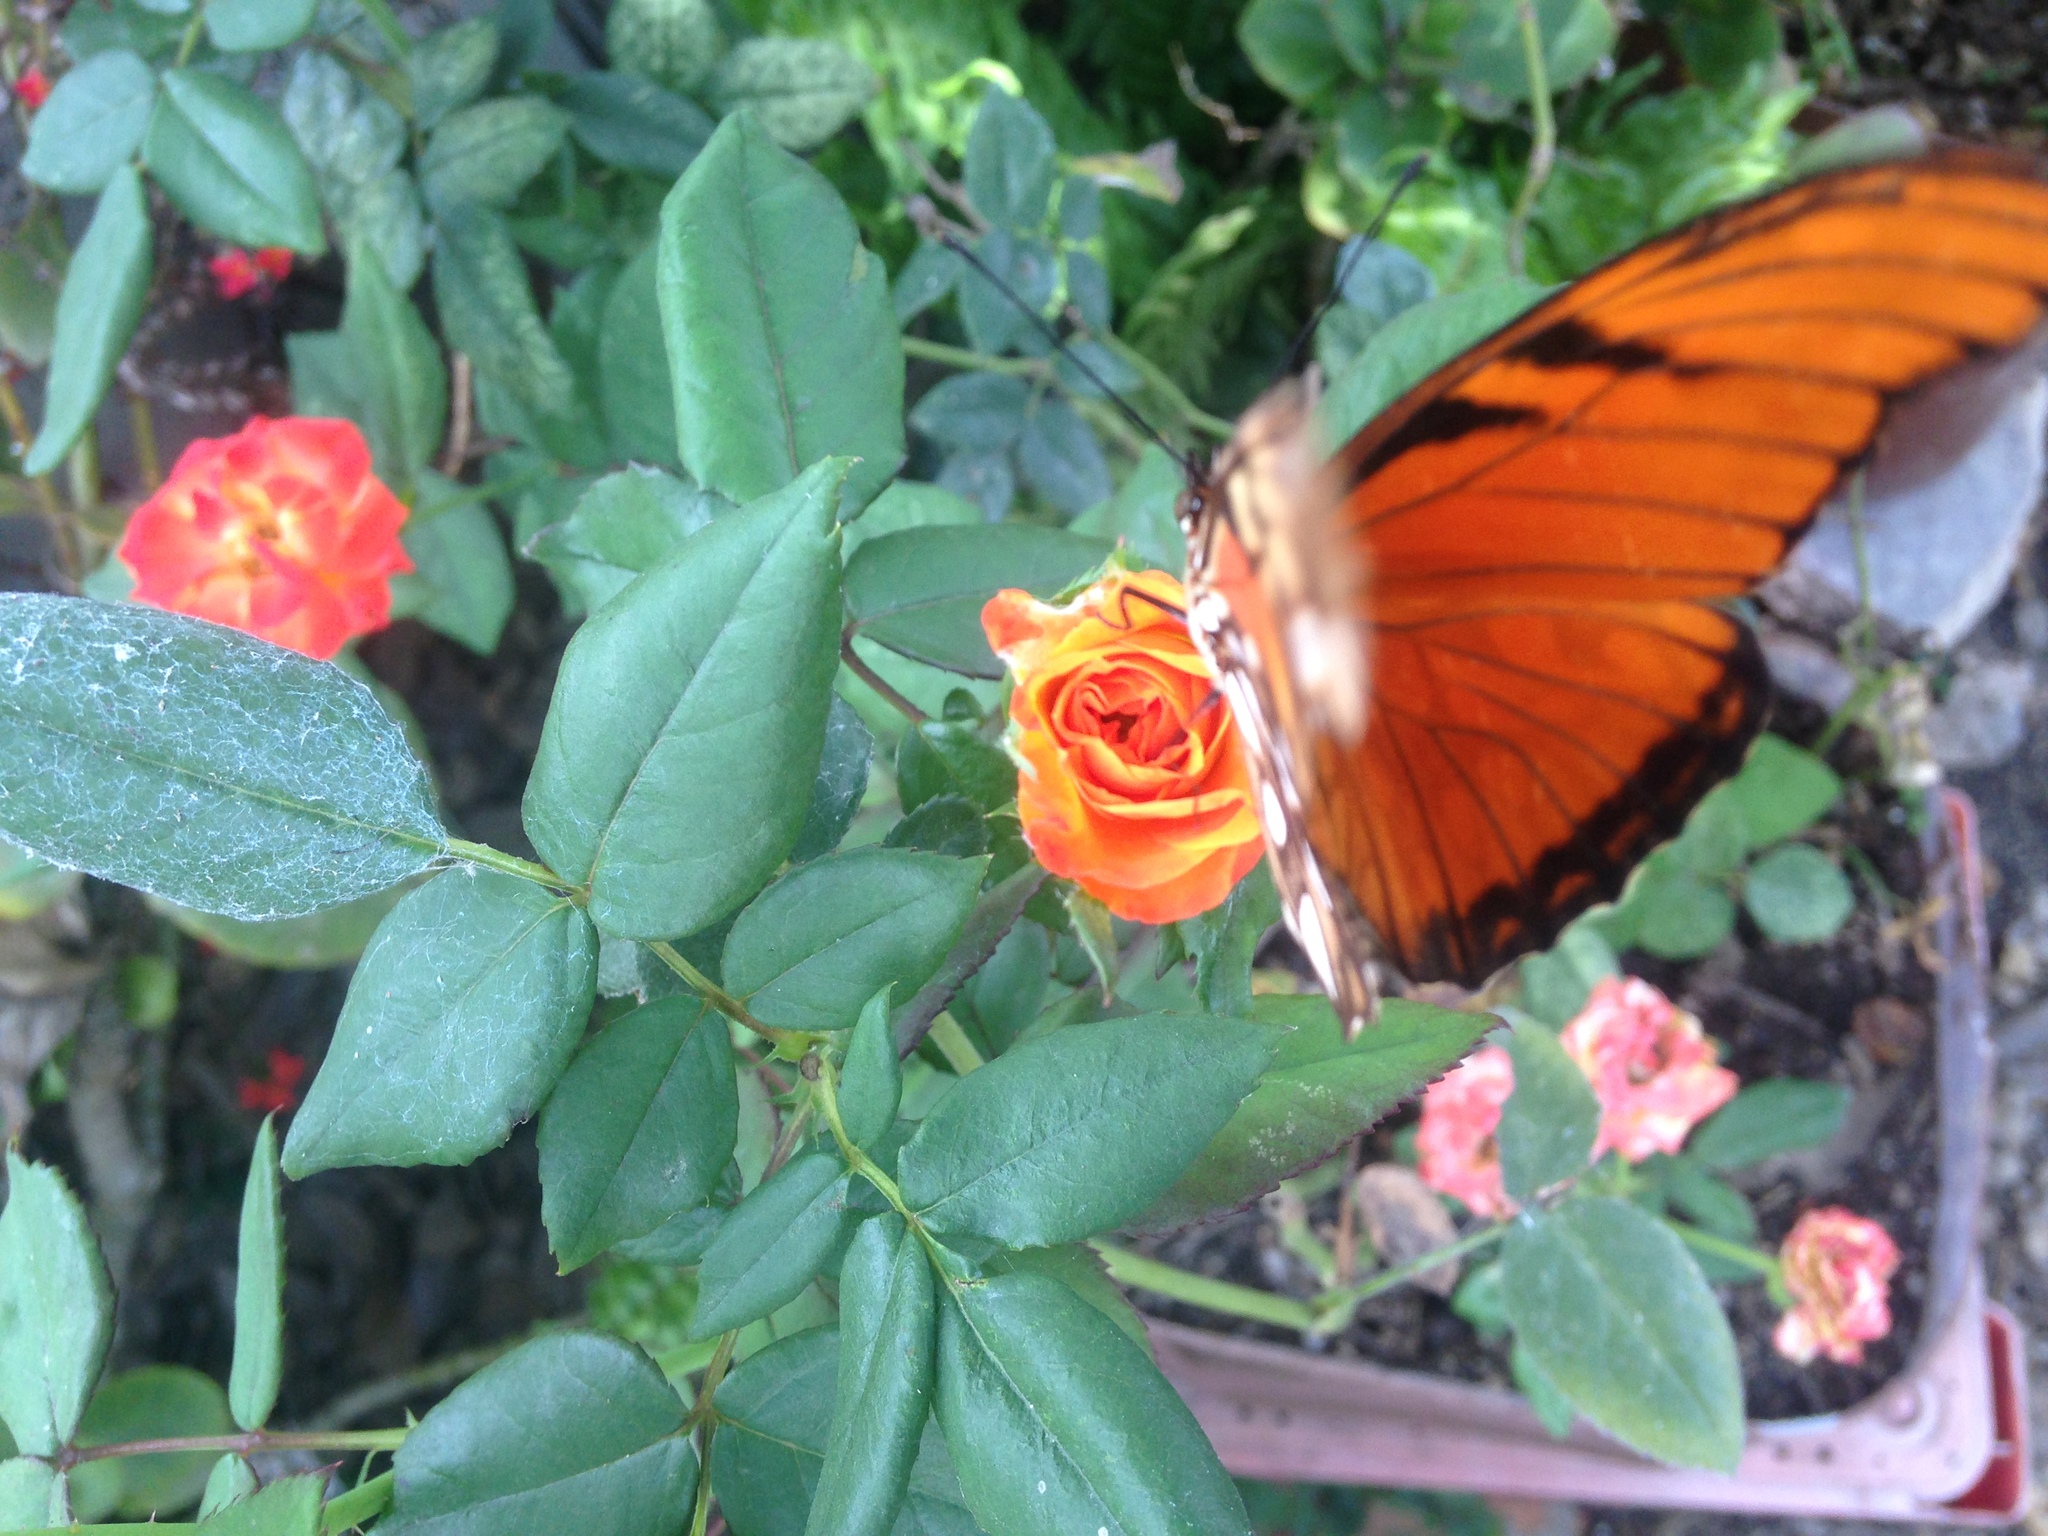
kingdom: Animalia
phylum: Arthropoda
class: Insecta
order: Lepidoptera
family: Nymphalidae
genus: Dione
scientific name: Dione juno
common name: Juno silverspot
